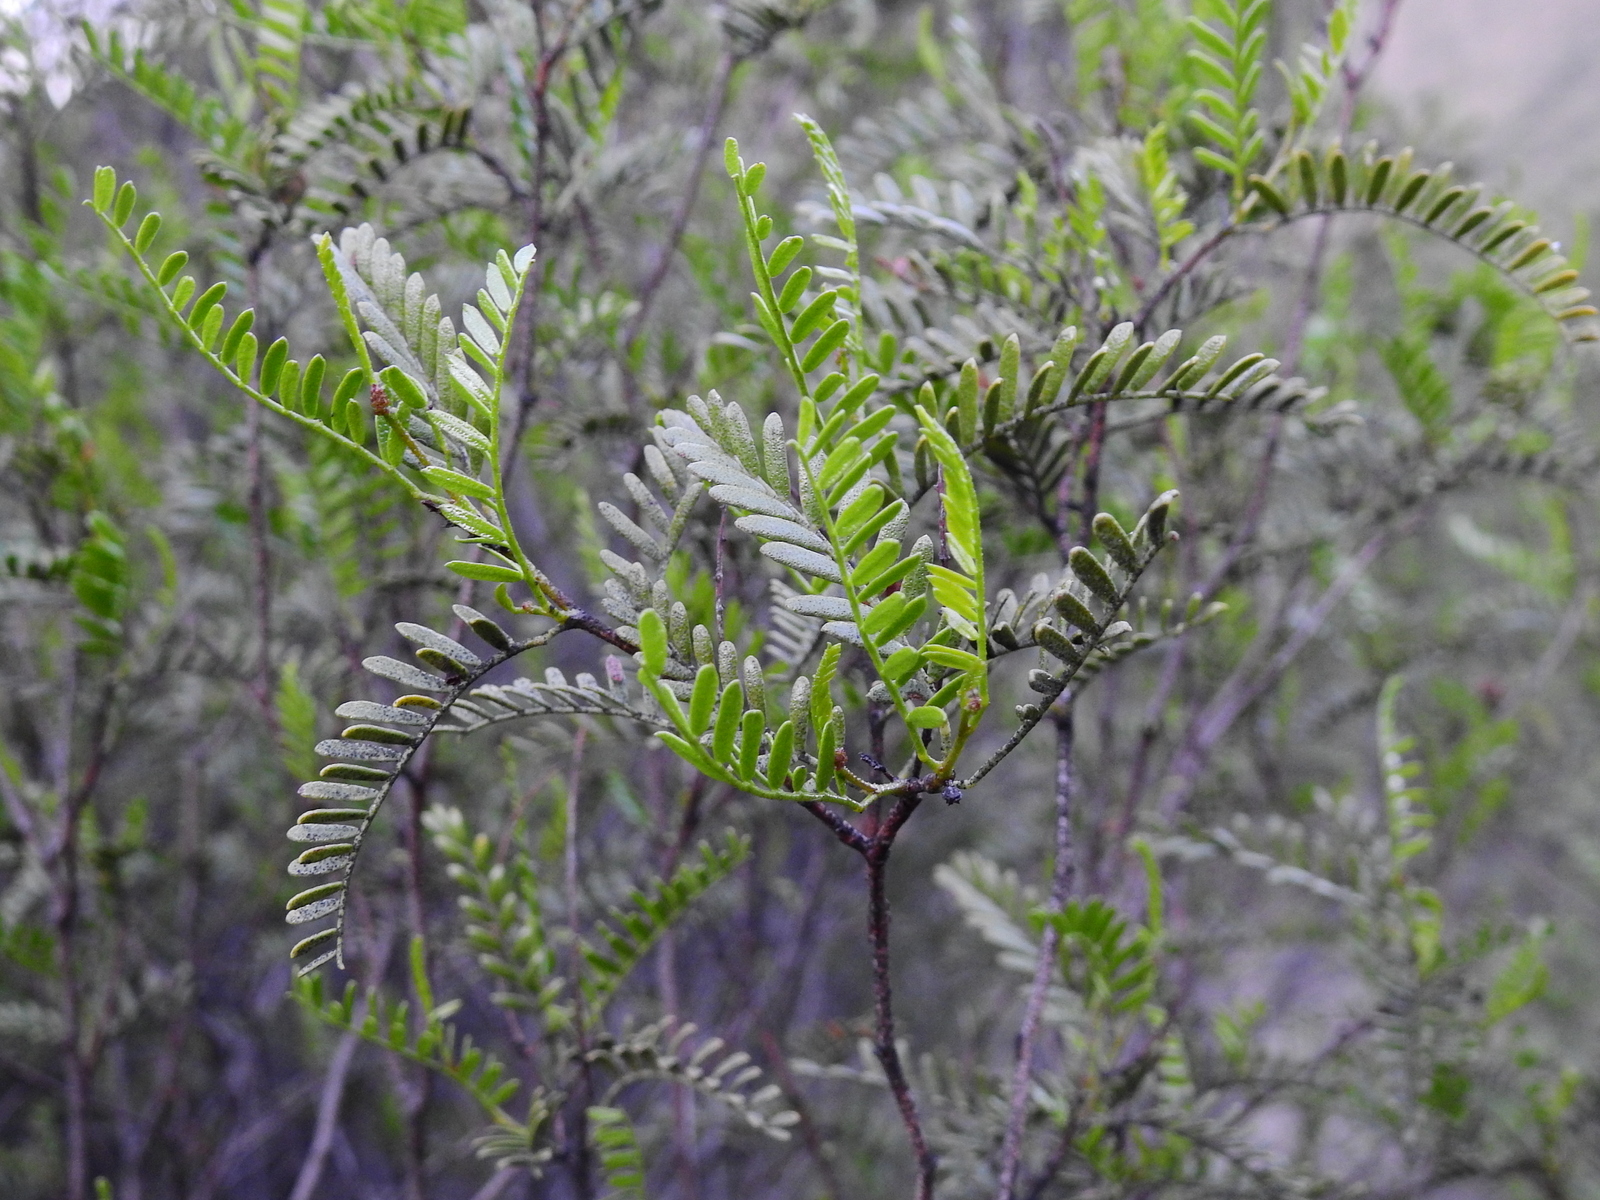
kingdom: Plantae
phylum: Tracheophyta
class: Magnoliopsida
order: Fabales
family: Fabaceae
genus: Zuccagnia
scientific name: Zuccagnia punctata
